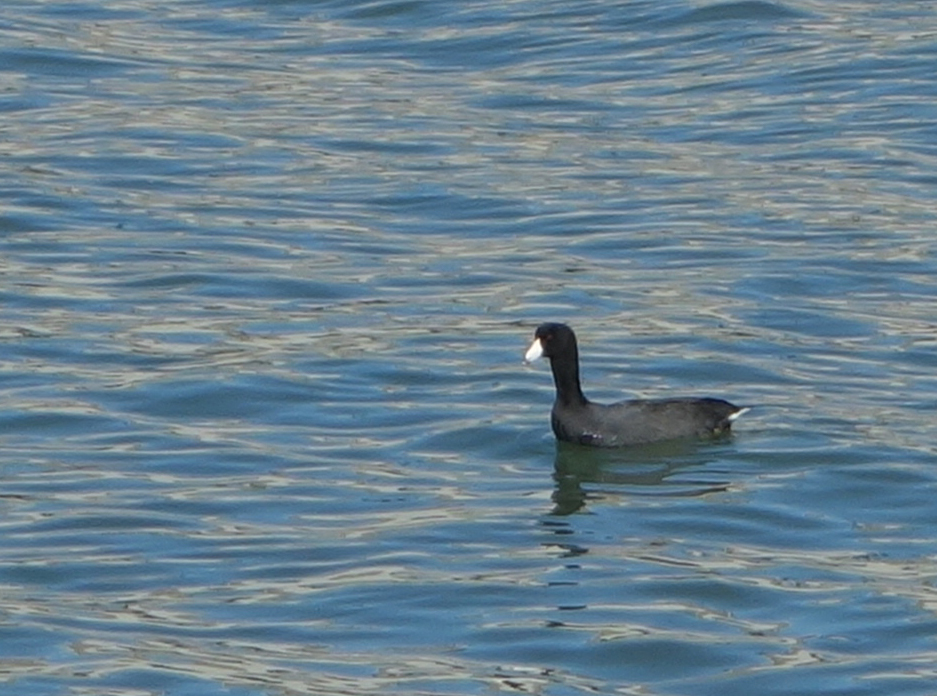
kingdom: Animalia
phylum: Chordata
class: Aves
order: Gruiformes
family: Rallidae
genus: Fulica
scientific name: Fulica americana
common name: American coot
